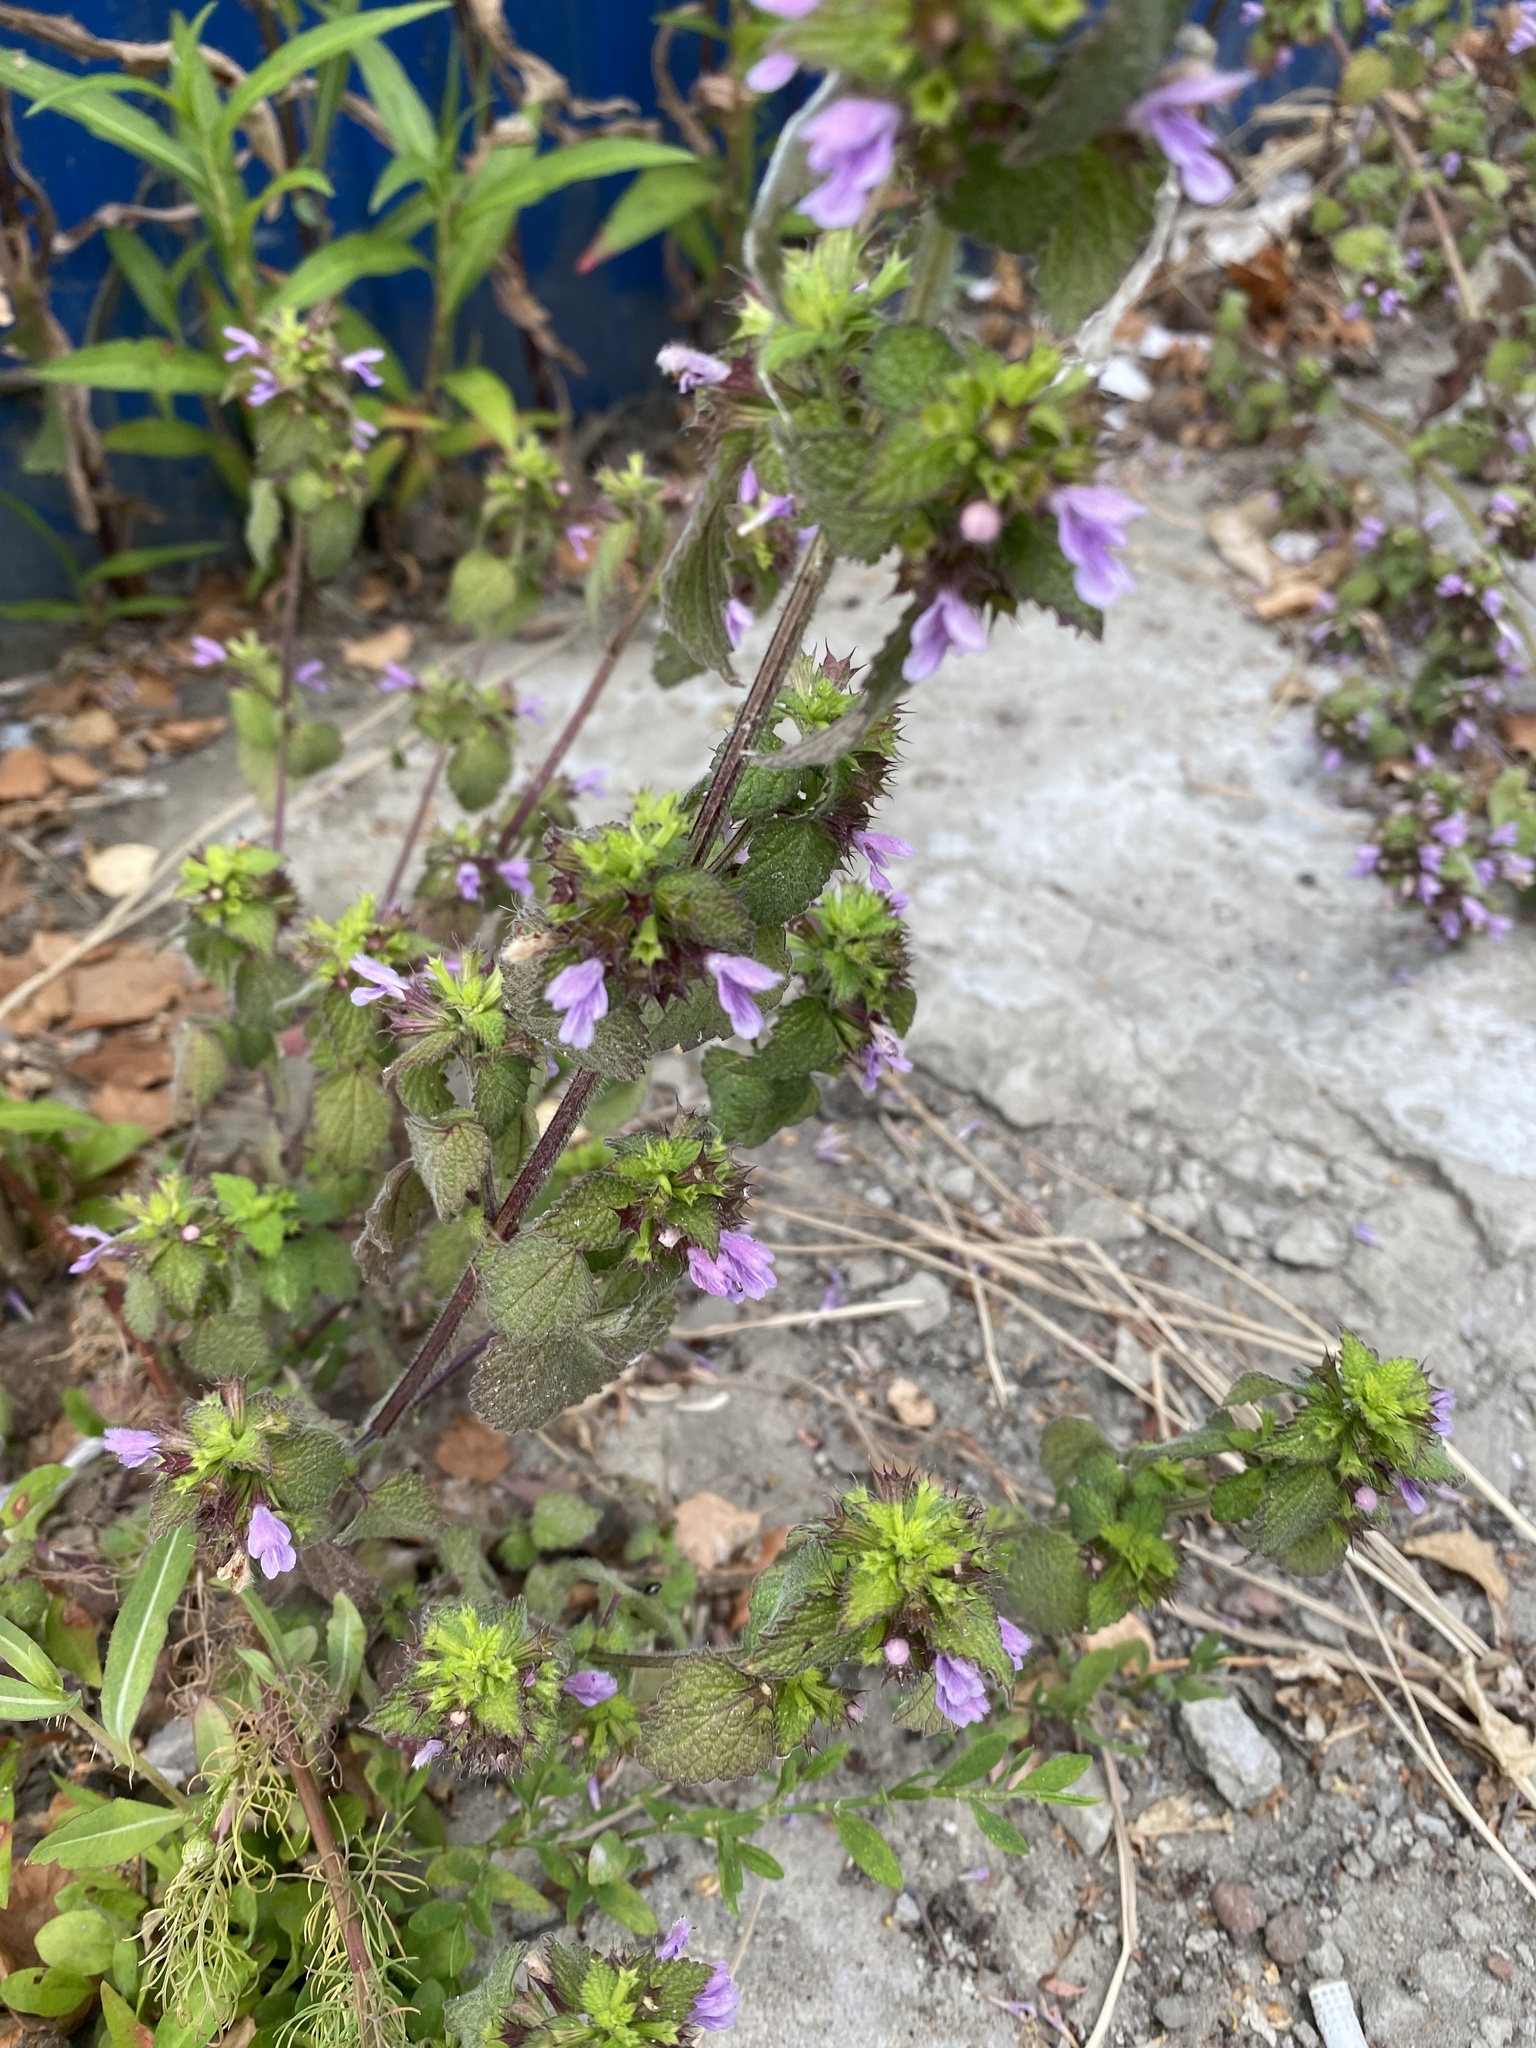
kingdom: Plantae
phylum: Tracheophyta
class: Magnoliopsida
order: Lamiales
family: Lamiaceae
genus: Ballota
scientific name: Ballota nigra
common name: Black horehound
